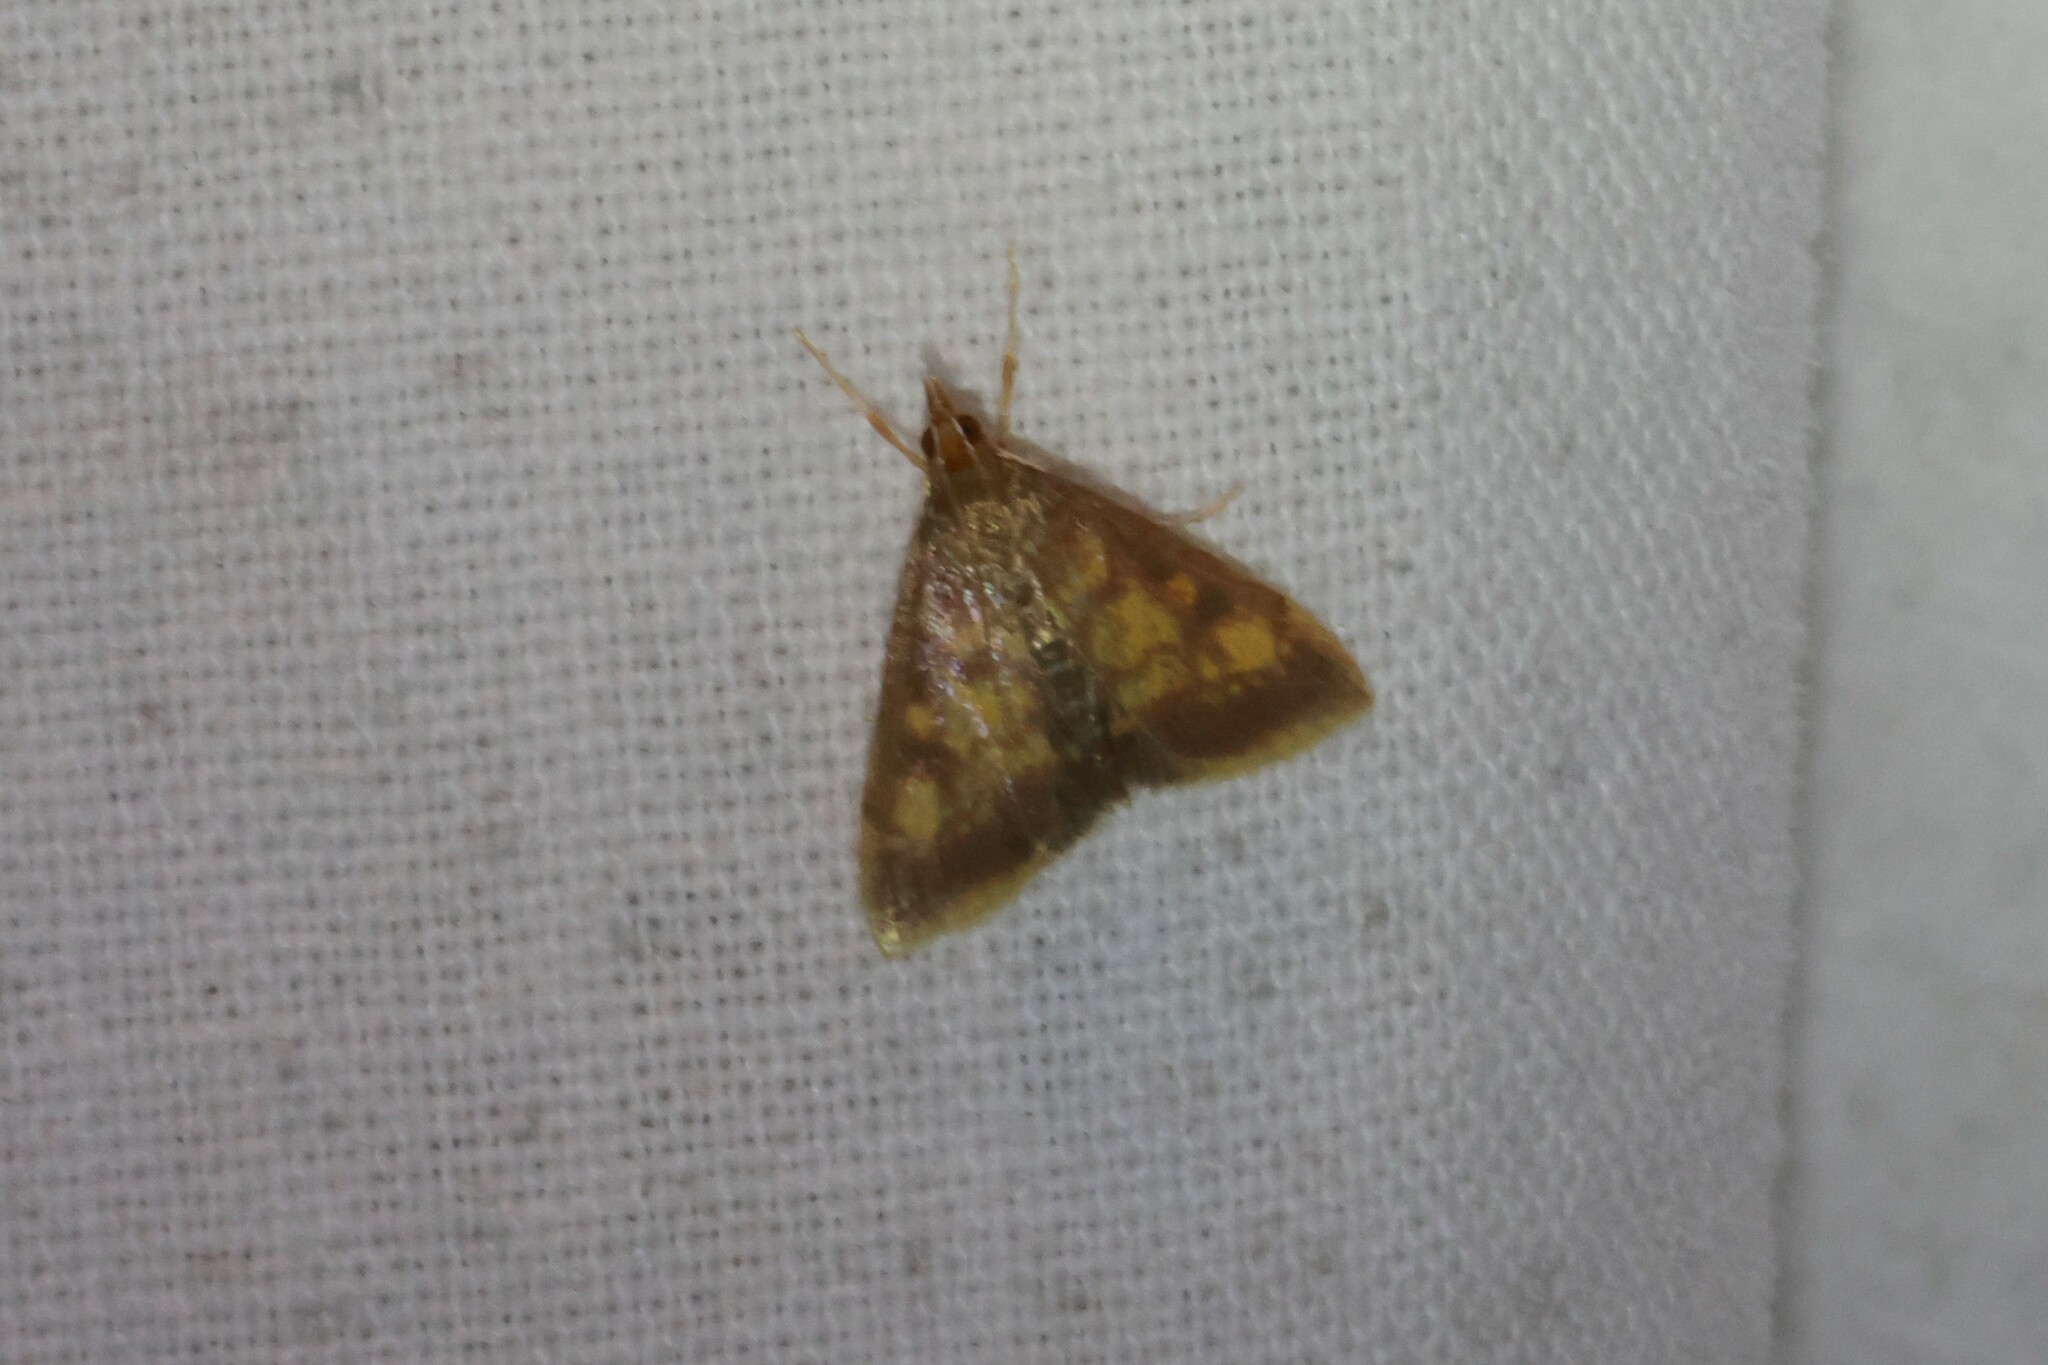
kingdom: Animalia
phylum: Arthropoda
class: Insecta
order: Lepidoptera
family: Crambidae
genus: Pyrausta
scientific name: Pyrausta acrionalis
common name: Mint-loving pyrausta moth
